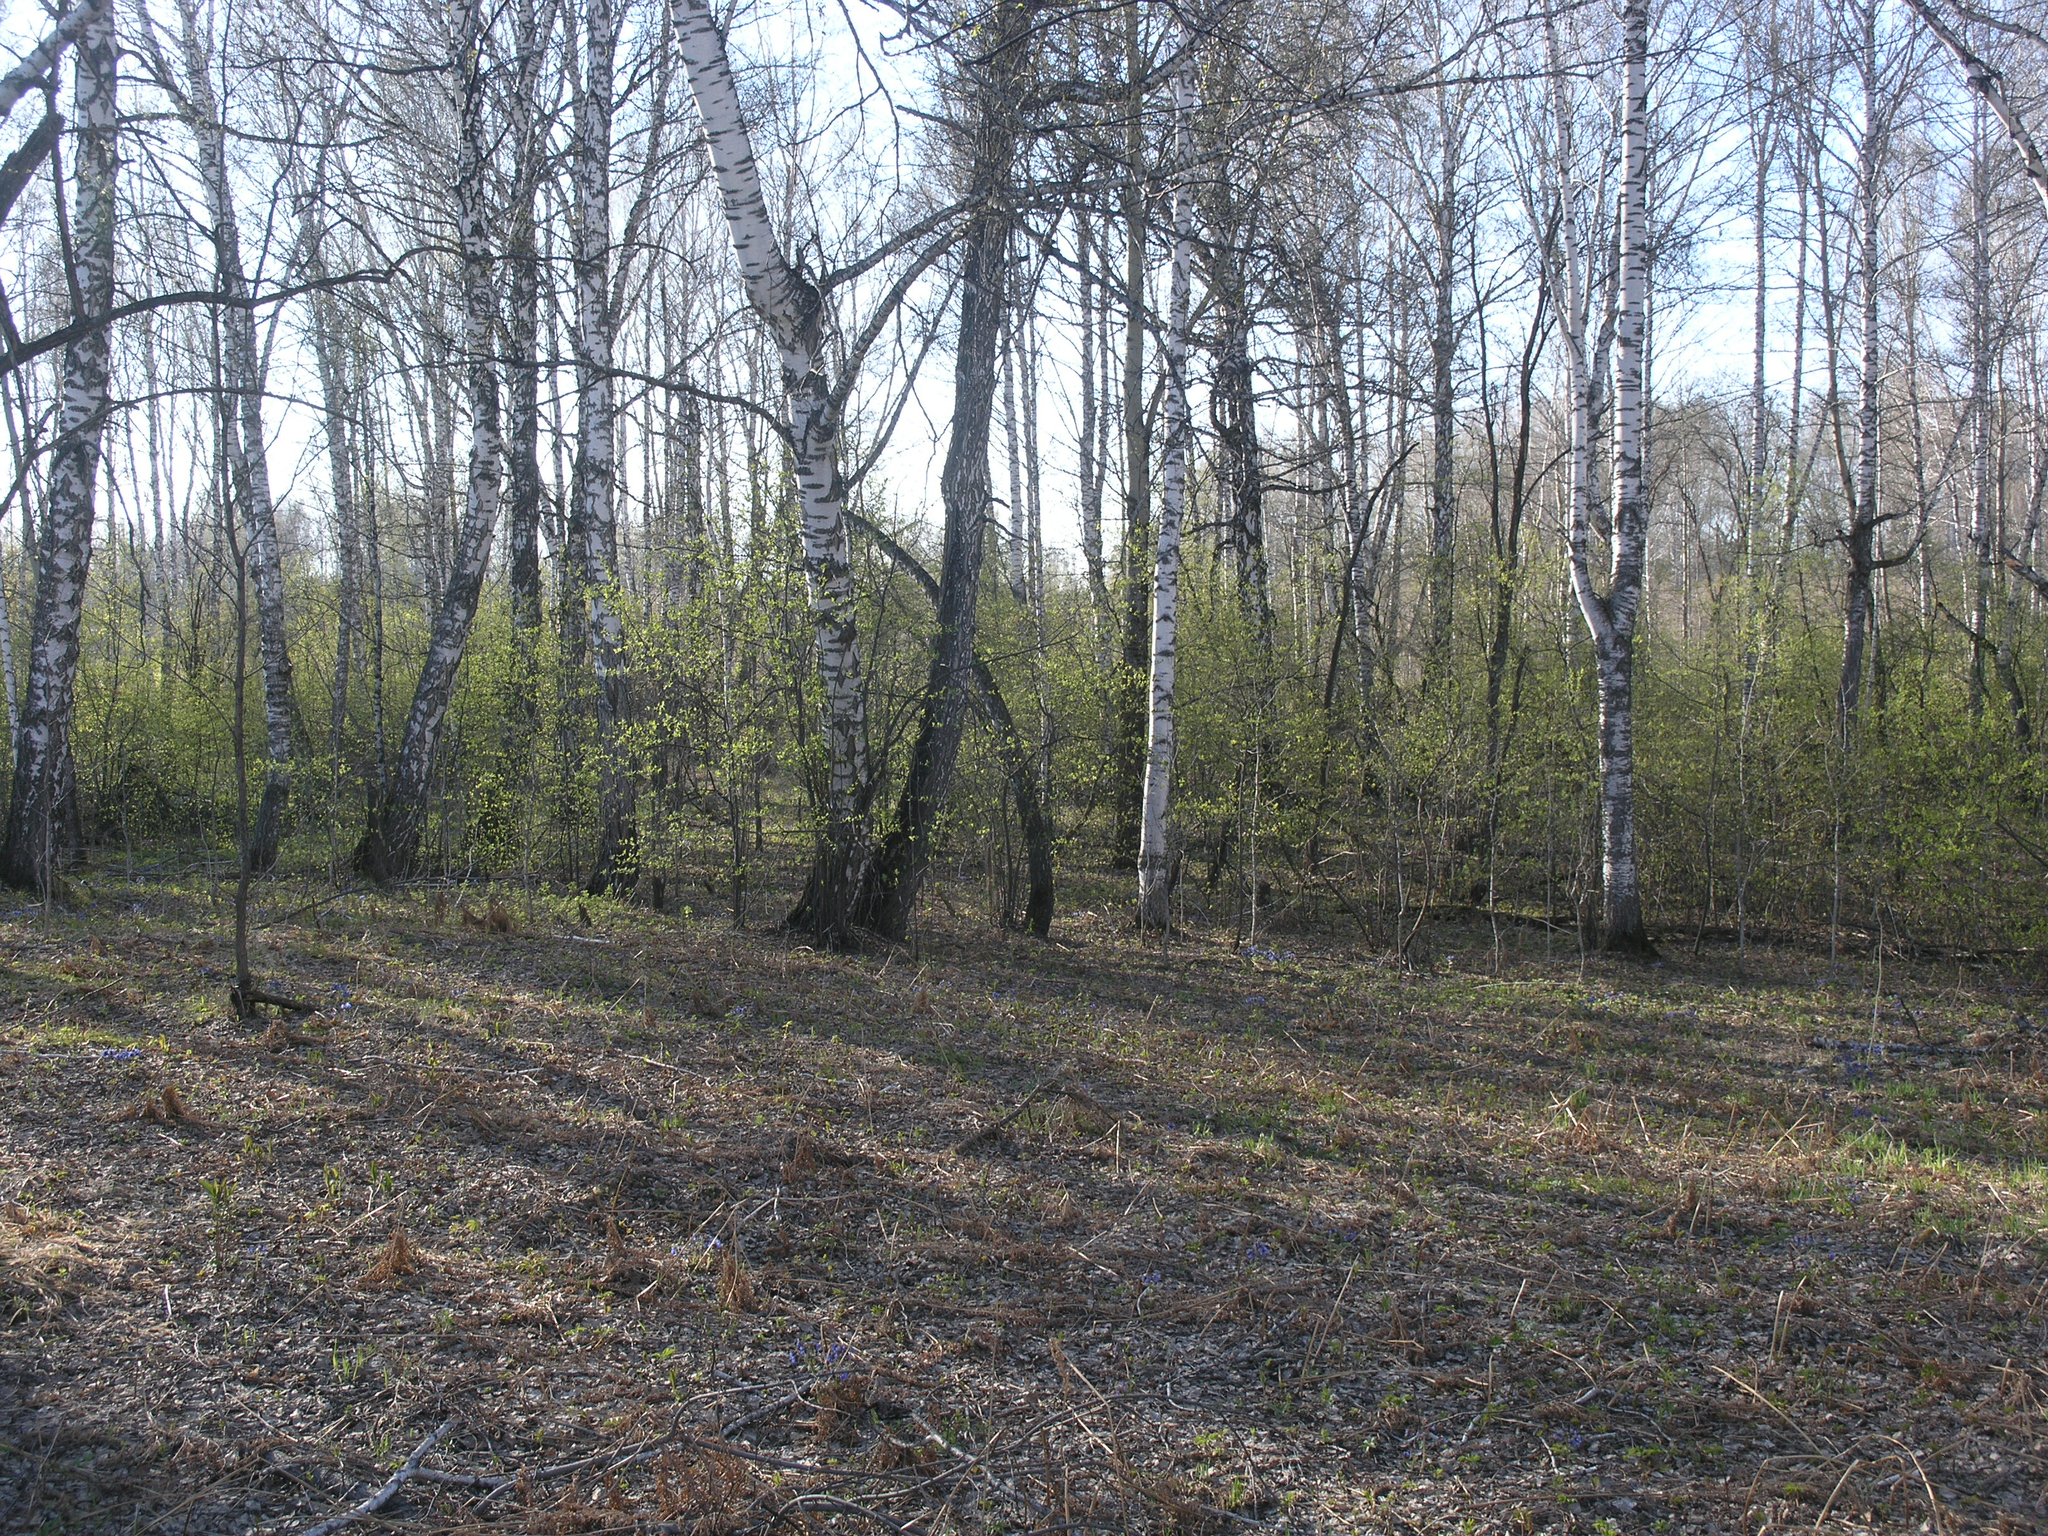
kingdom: Plantae
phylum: Tracheophyta
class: Magnoliopsida
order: Fagales
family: Betulaceae
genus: Betula
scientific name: Betula pendula
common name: Silver birch
